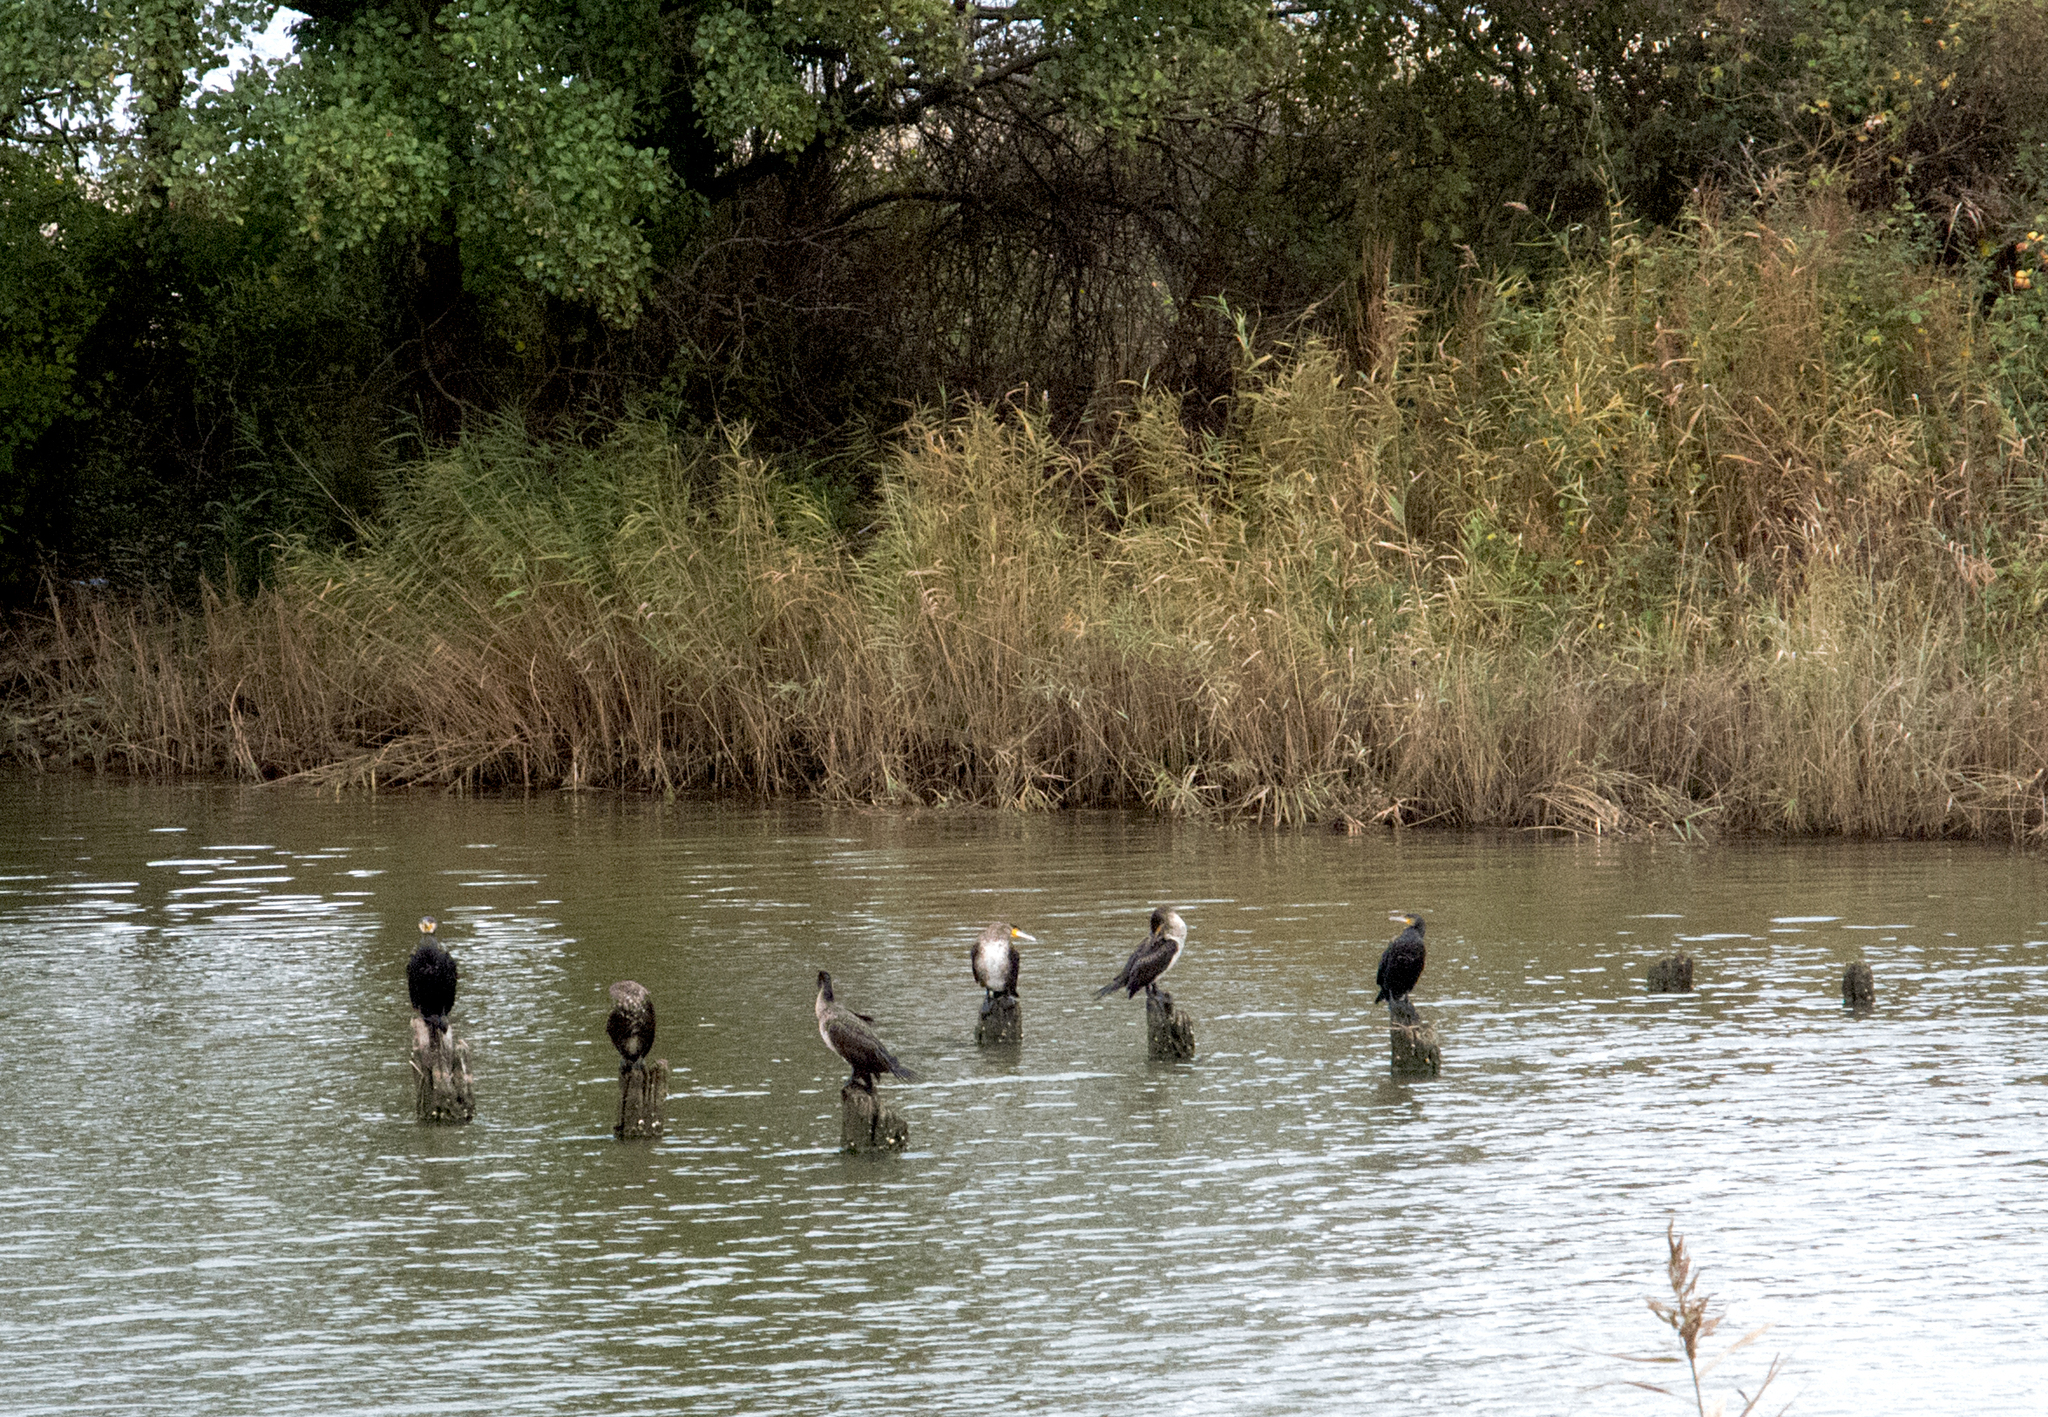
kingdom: Animalia
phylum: Chordata
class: Aves
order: Suliformes
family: Phalacrocoracidae
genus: Phalacrocorax
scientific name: Phalacrocorax carbo
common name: Great cormorant
